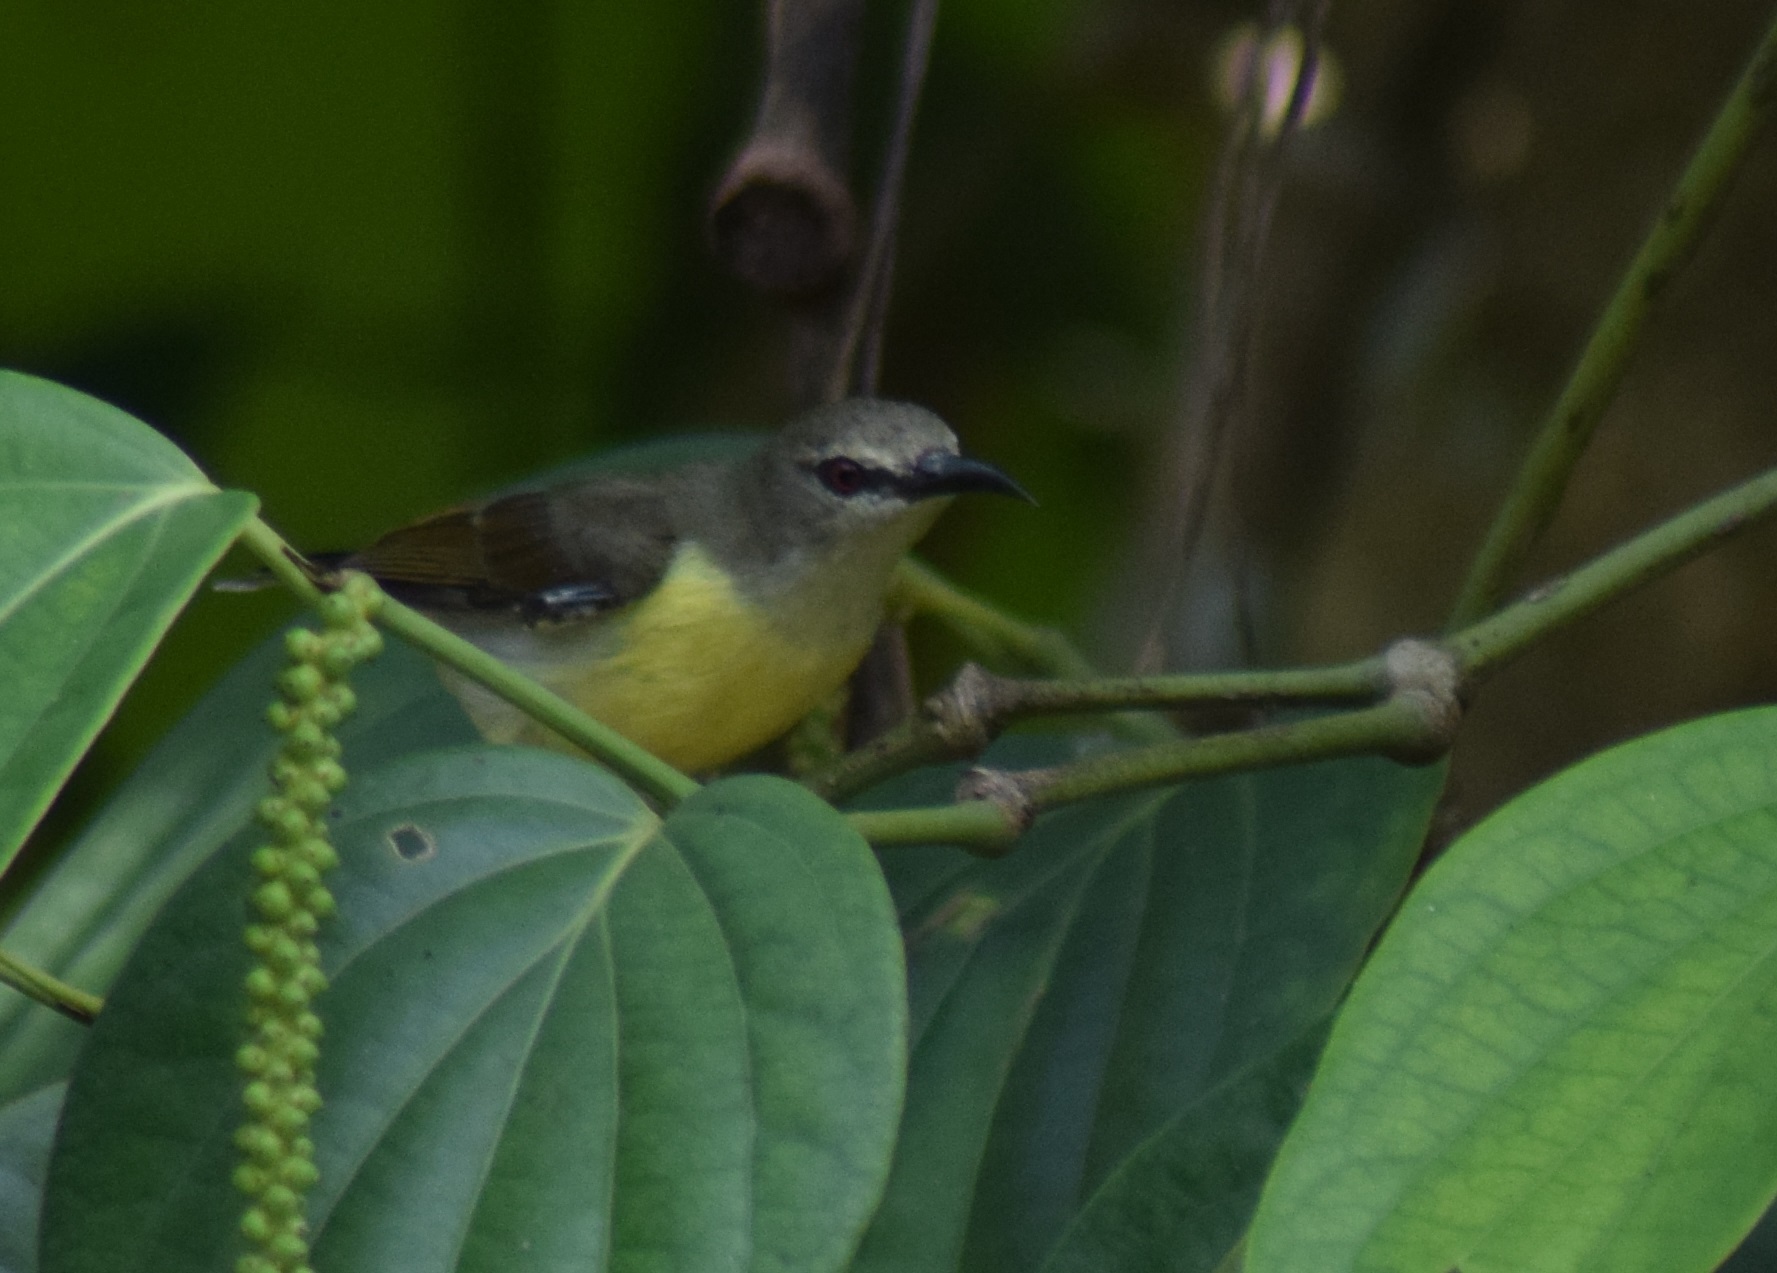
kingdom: Animalia
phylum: Chordata
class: Aves
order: Passeriformes
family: Nectariniidae
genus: Leptocoma
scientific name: Leptocoma zeylonica
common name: Purple-rumped sunbird
